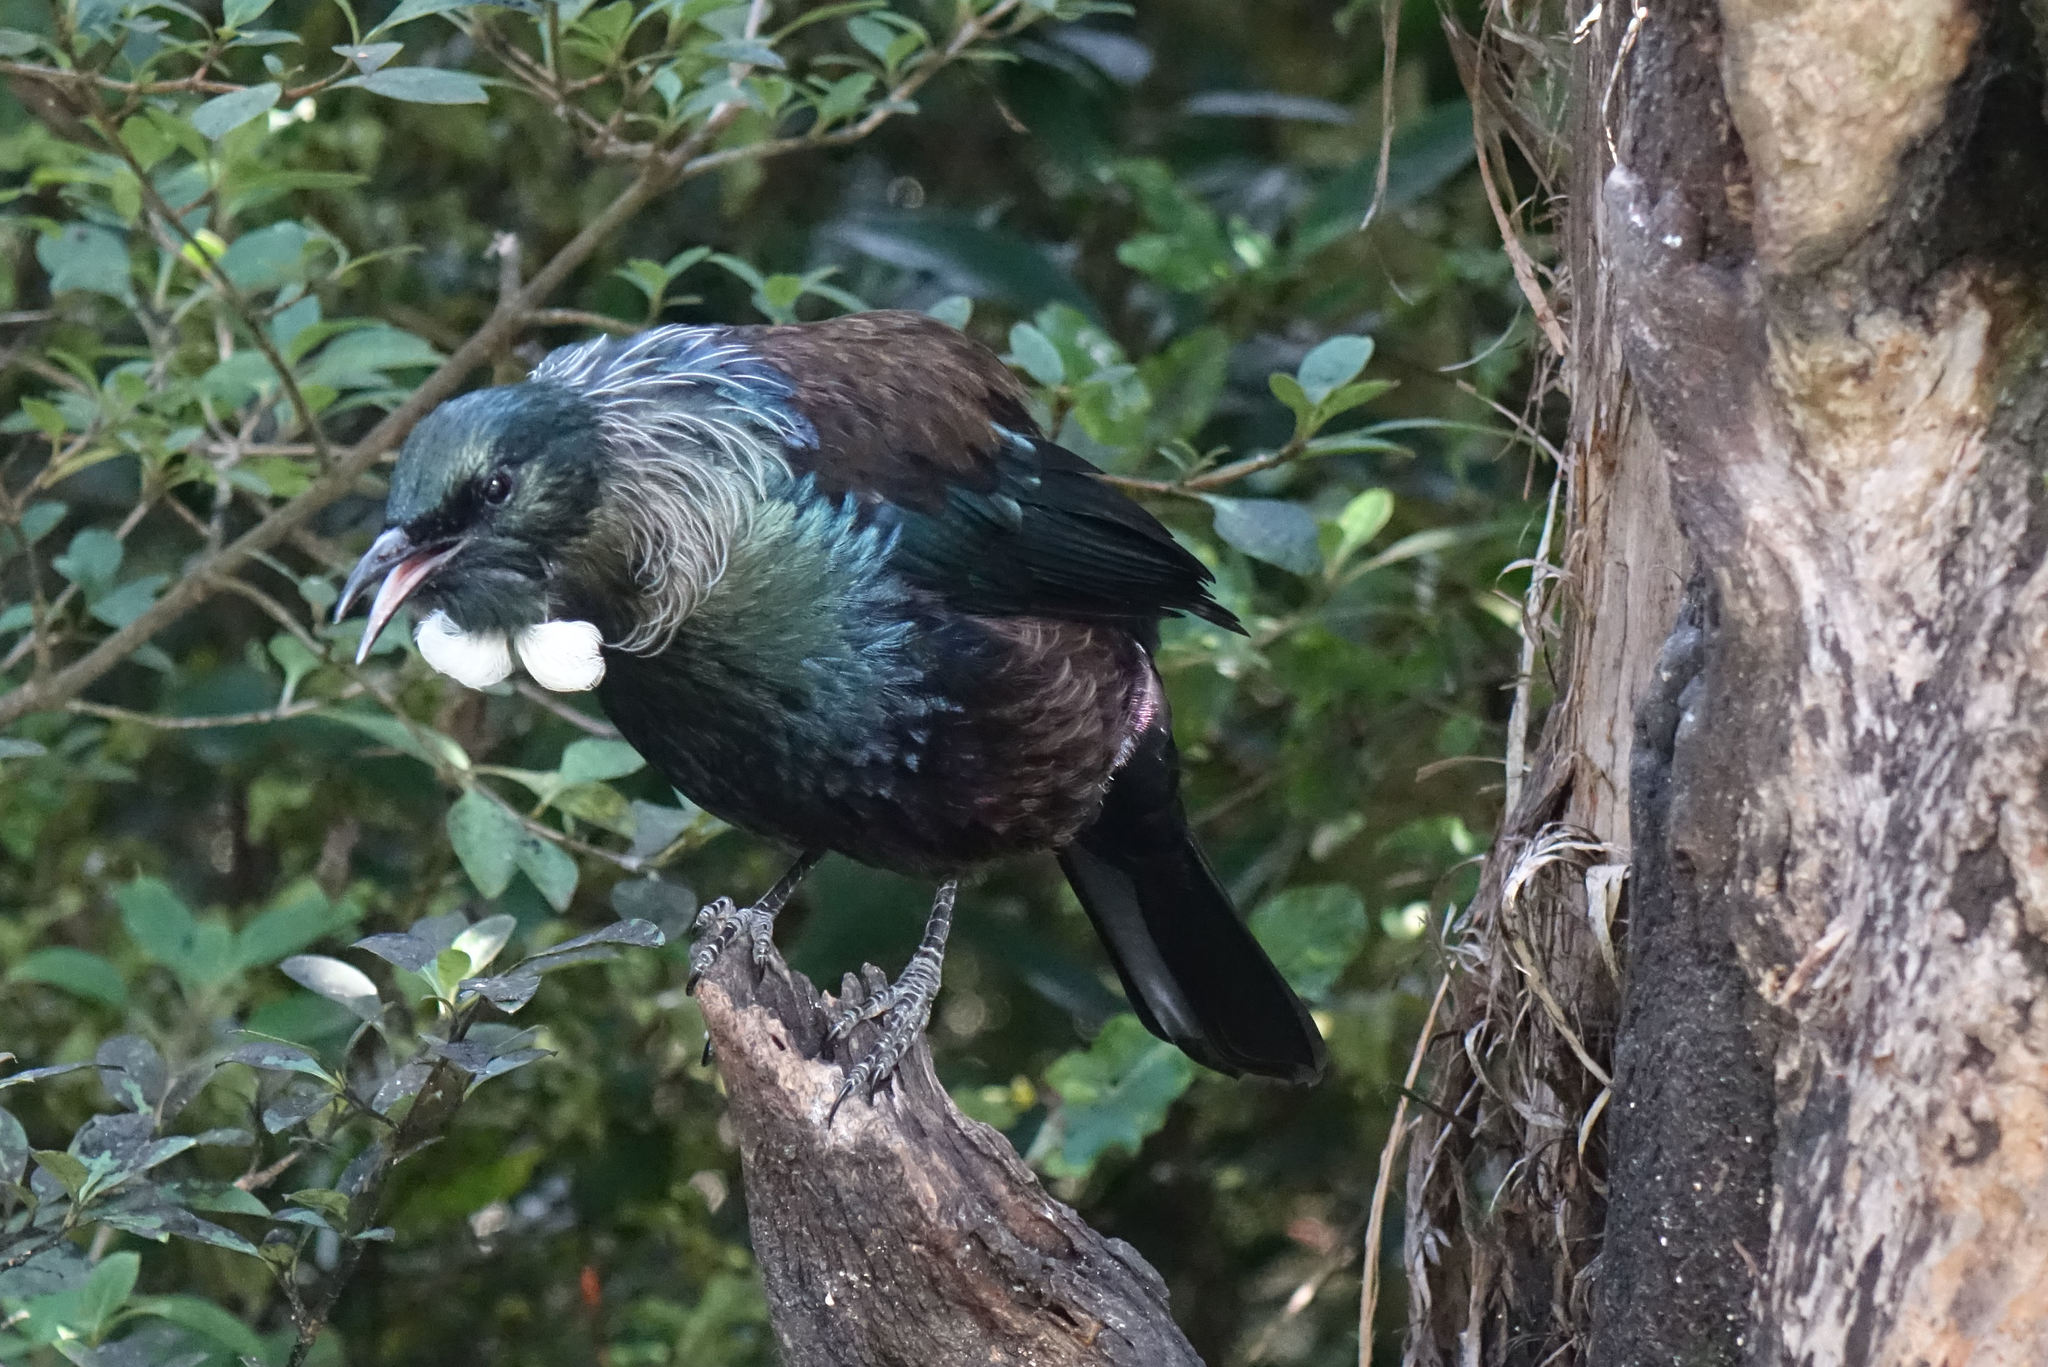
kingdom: Animalia
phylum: Chordata
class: Aves
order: Passeriformes
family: Meliphagidae
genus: Prosthemadera
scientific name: Prosthemadera novaeseelandiae
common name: Tui
